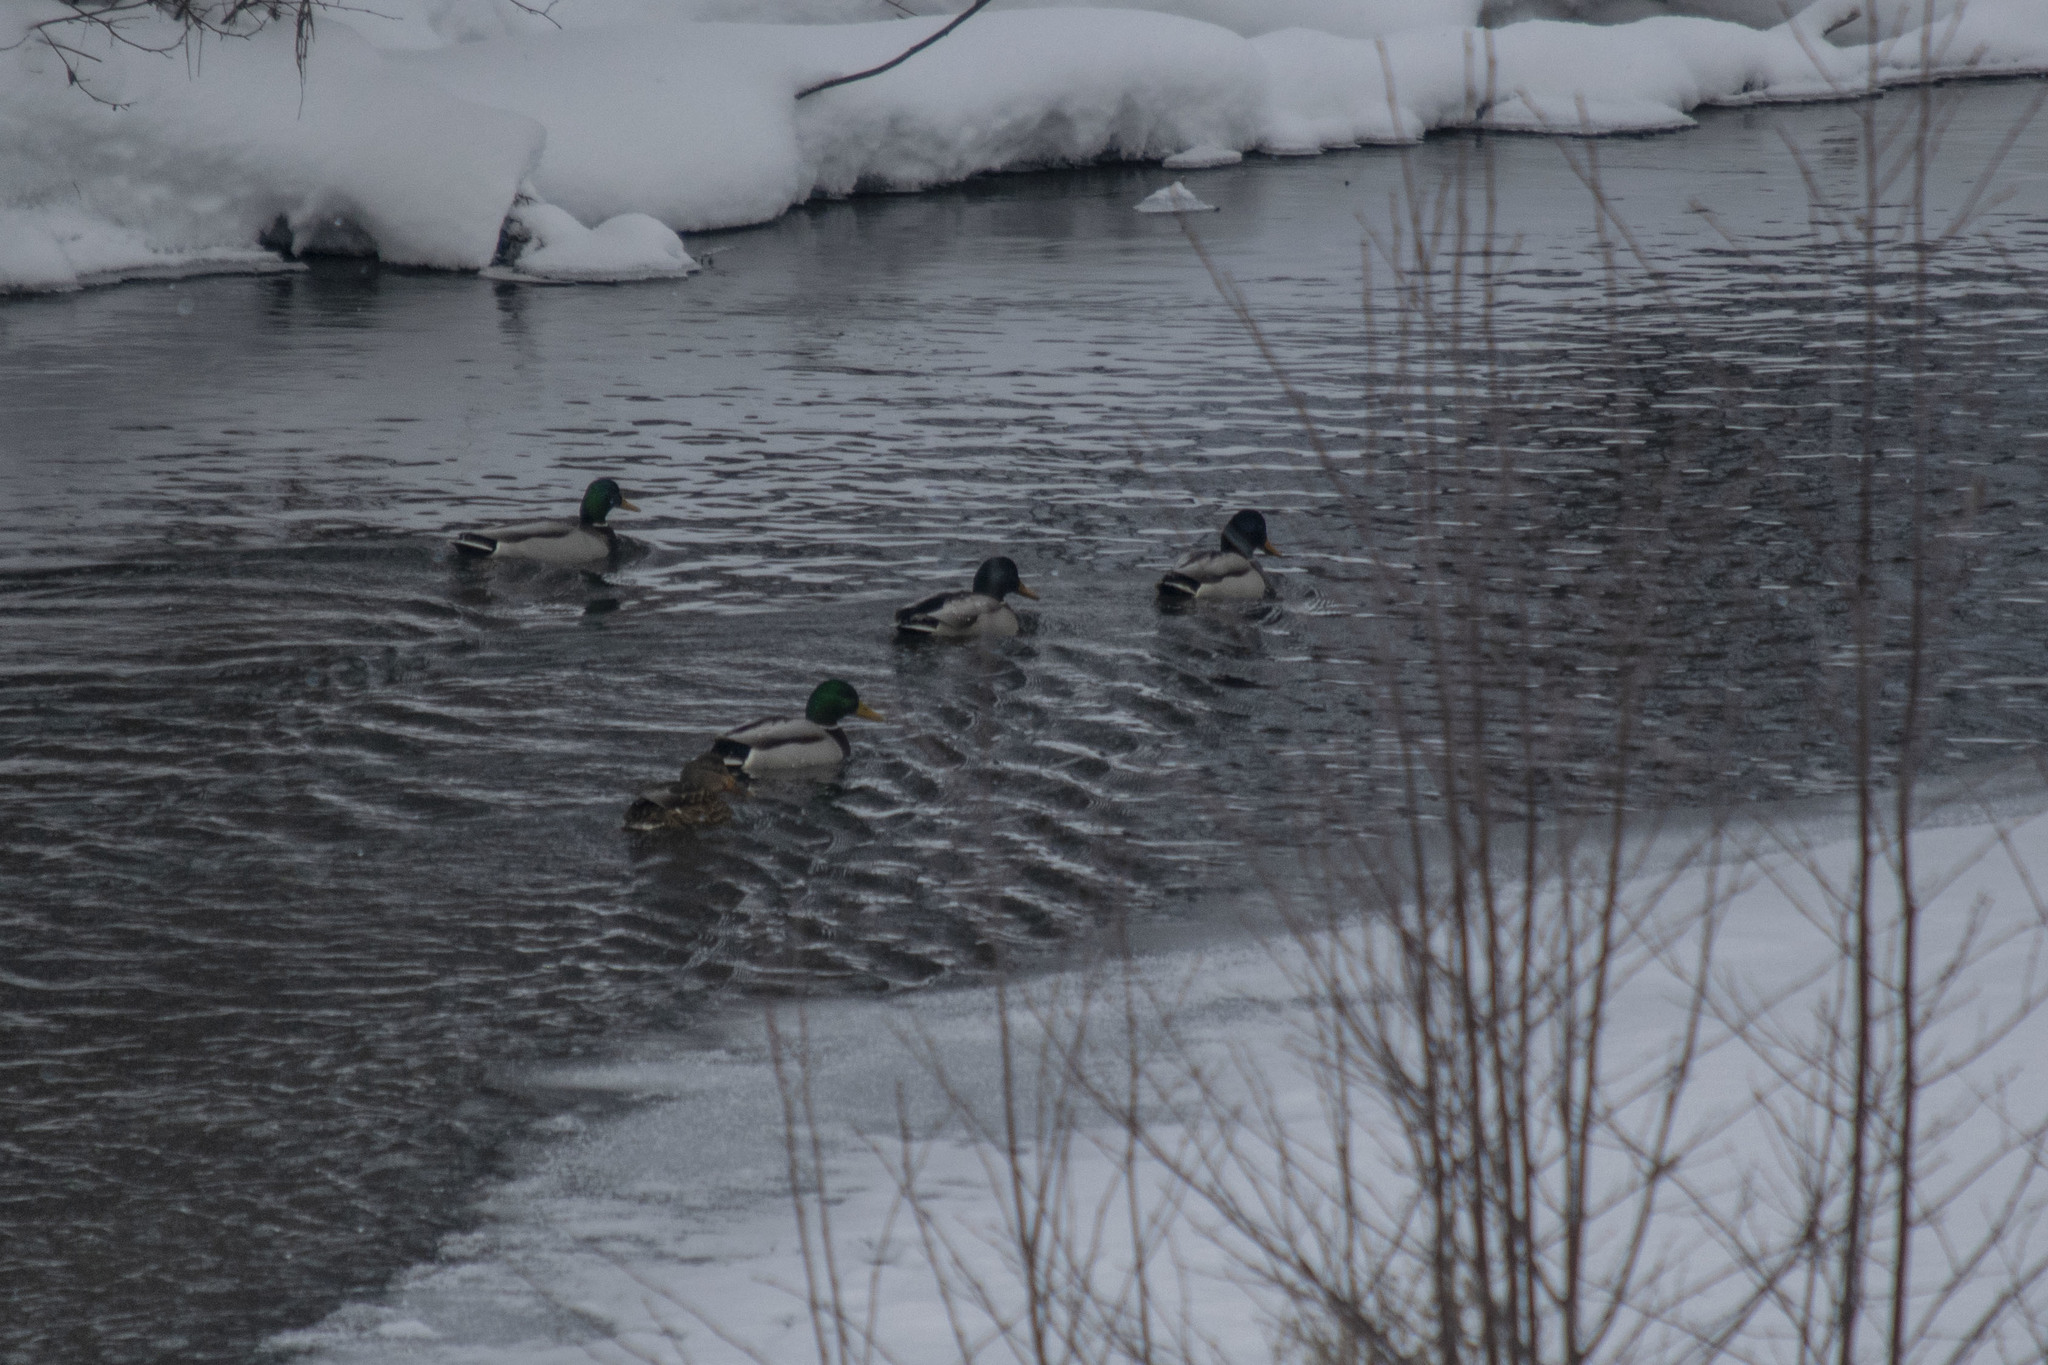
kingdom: Animalia
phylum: Chordata
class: Aves
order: Anseriformes
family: Anatidae
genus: Anas
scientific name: Anas platyrhynchos
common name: Mallard
